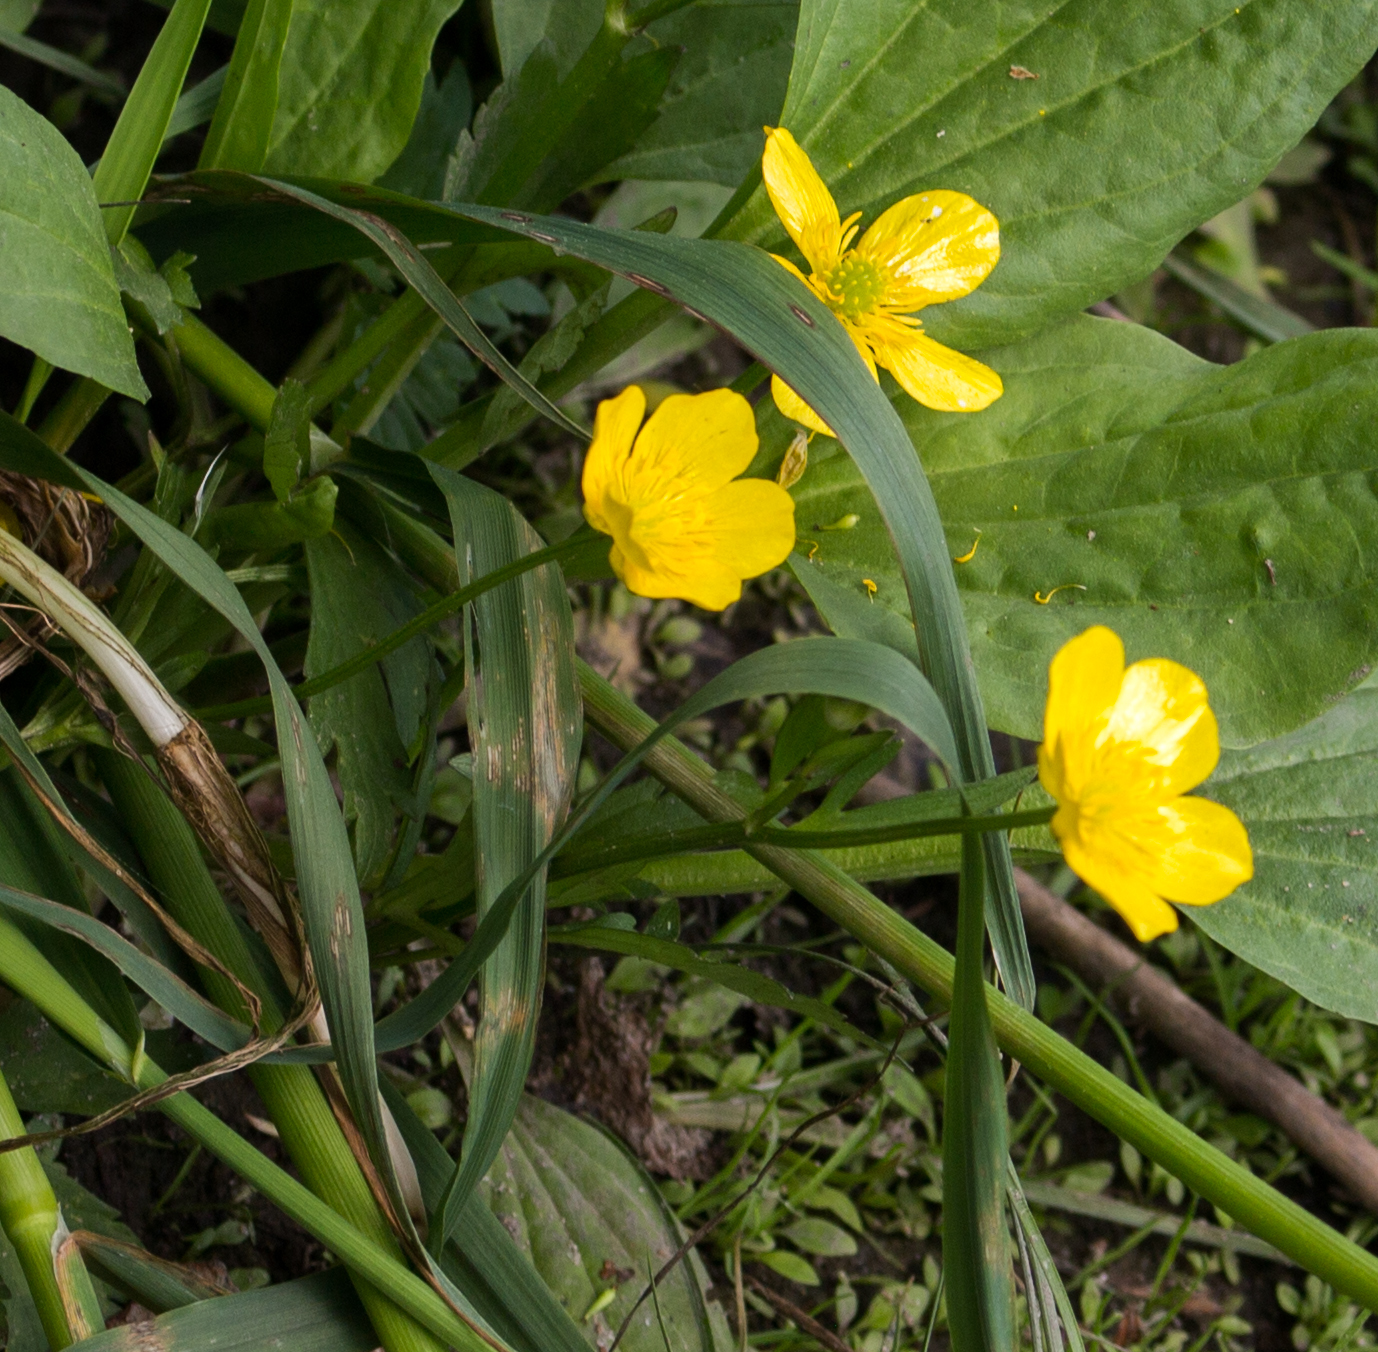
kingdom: Plantae
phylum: Tracheophyta
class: Magnoliopsida
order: Ranunculales
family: Ranunculaceae
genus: Ranunculus
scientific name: Ranunculus repens
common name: Creeping buttercup
